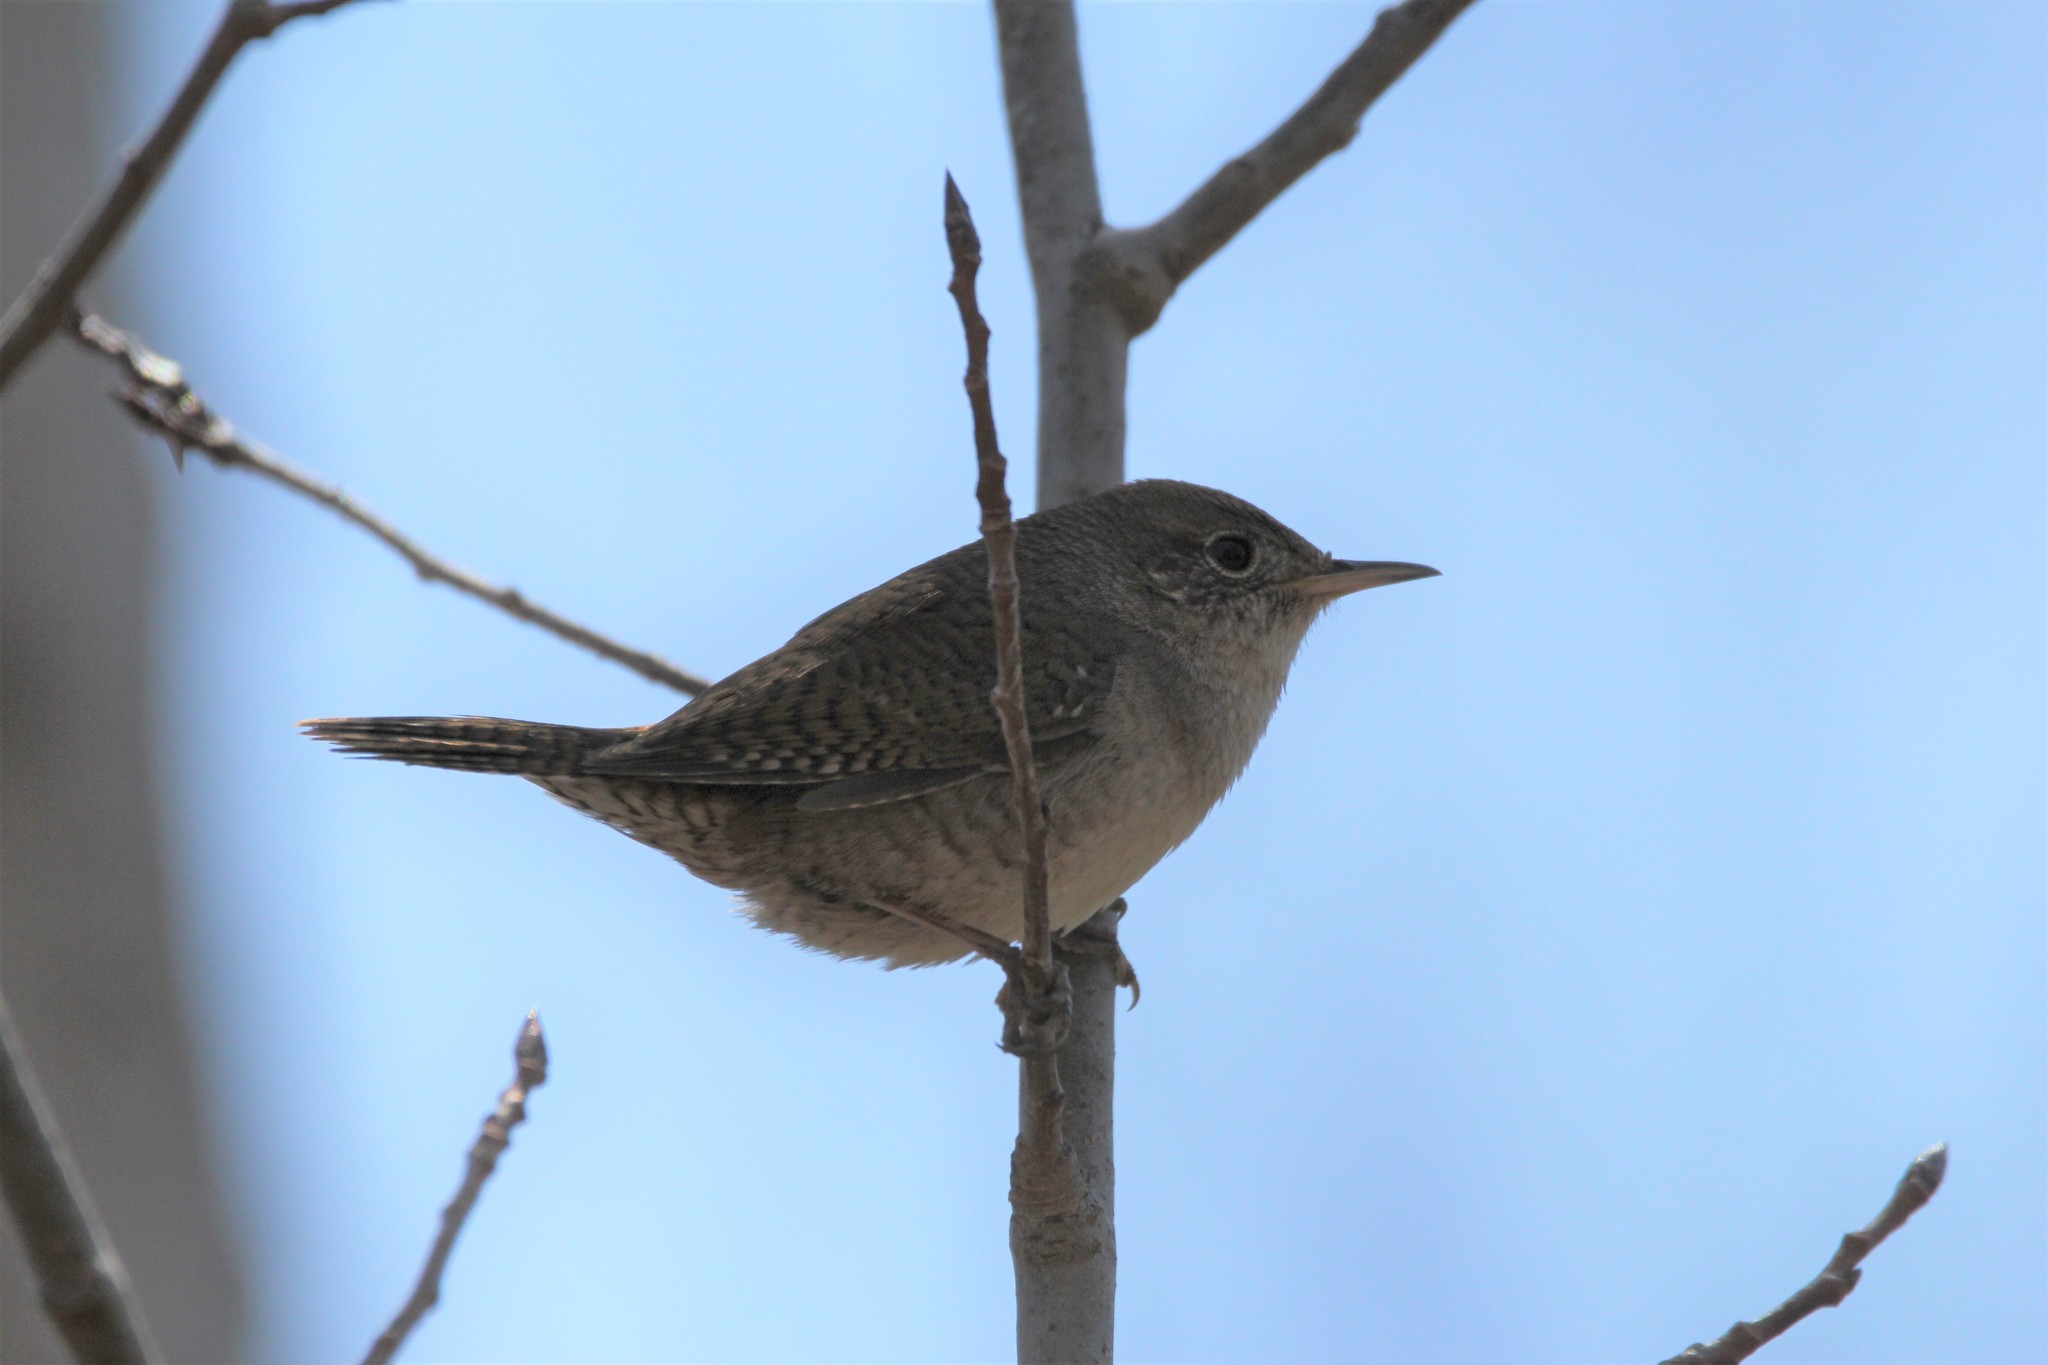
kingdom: Animalia
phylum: Chordata
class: Aves
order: Passeriformes
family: Troglodytidae
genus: Troglodytes
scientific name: Troglodytes aedon
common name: House wren
